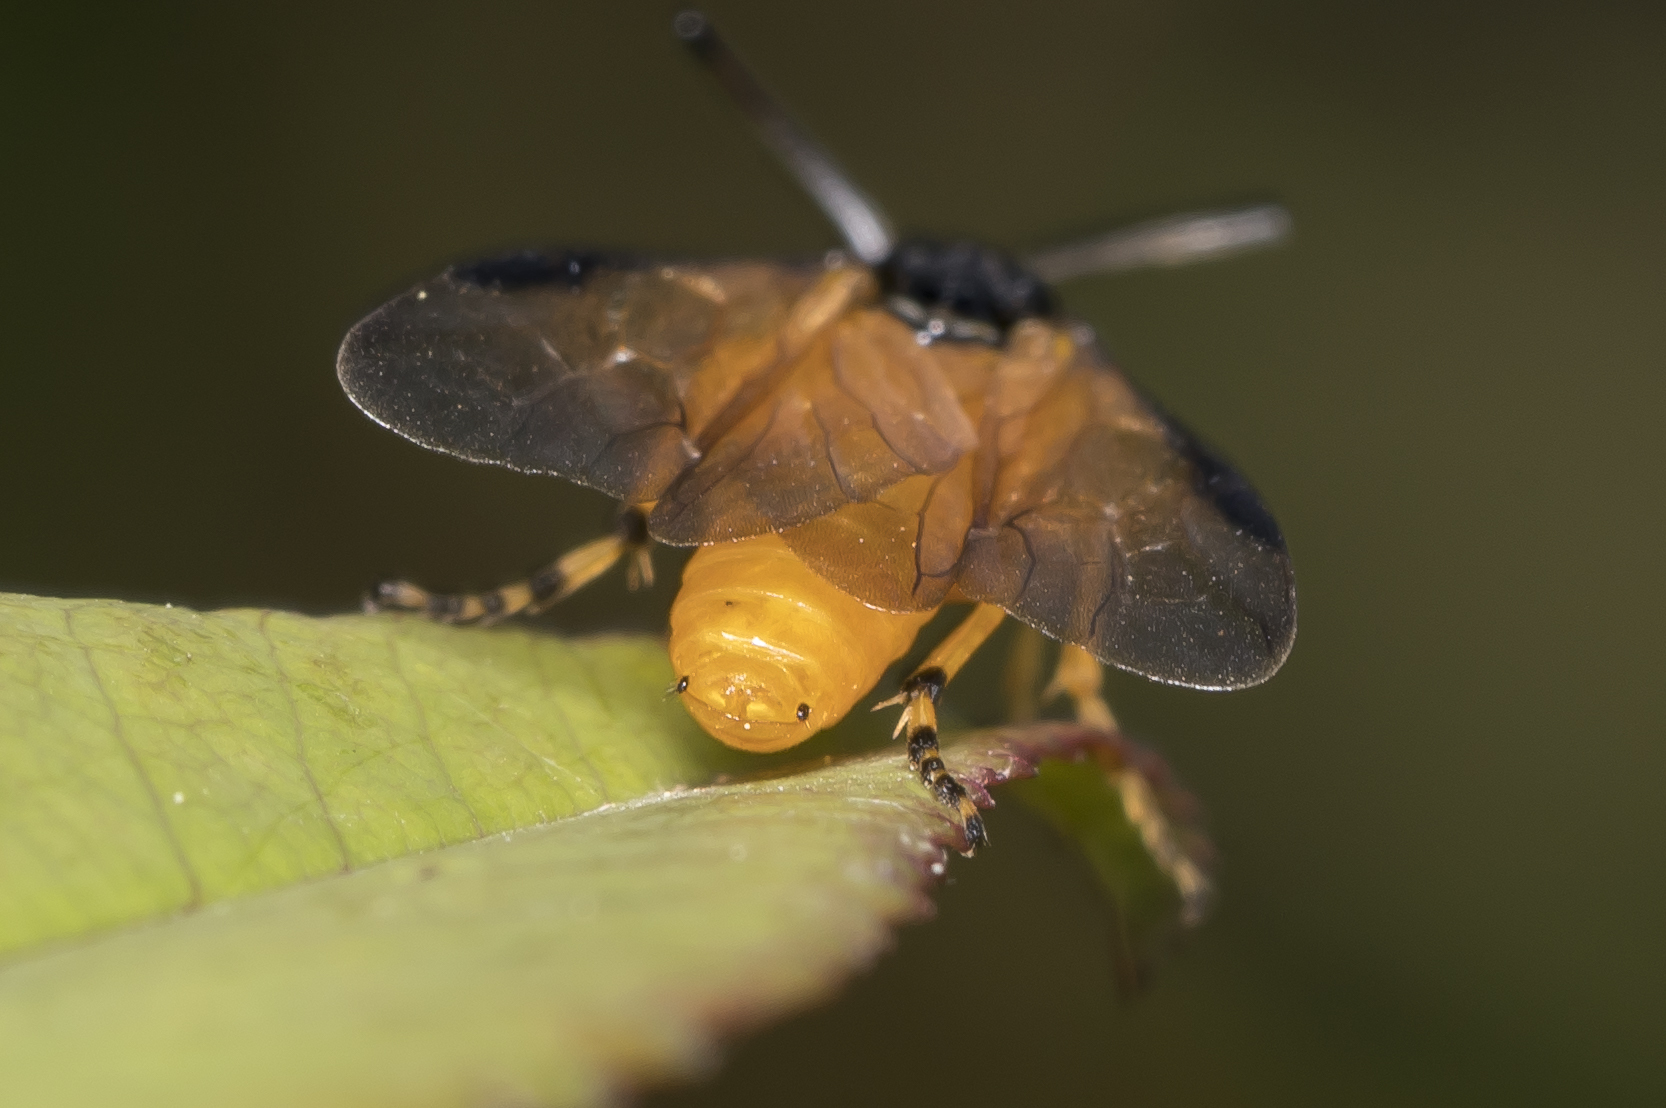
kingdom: Animalia
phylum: Arthropoda
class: Insecta
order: Hymenoptera
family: Argidae
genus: Arge
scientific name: Arge ochropus
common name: Argid sawfly
